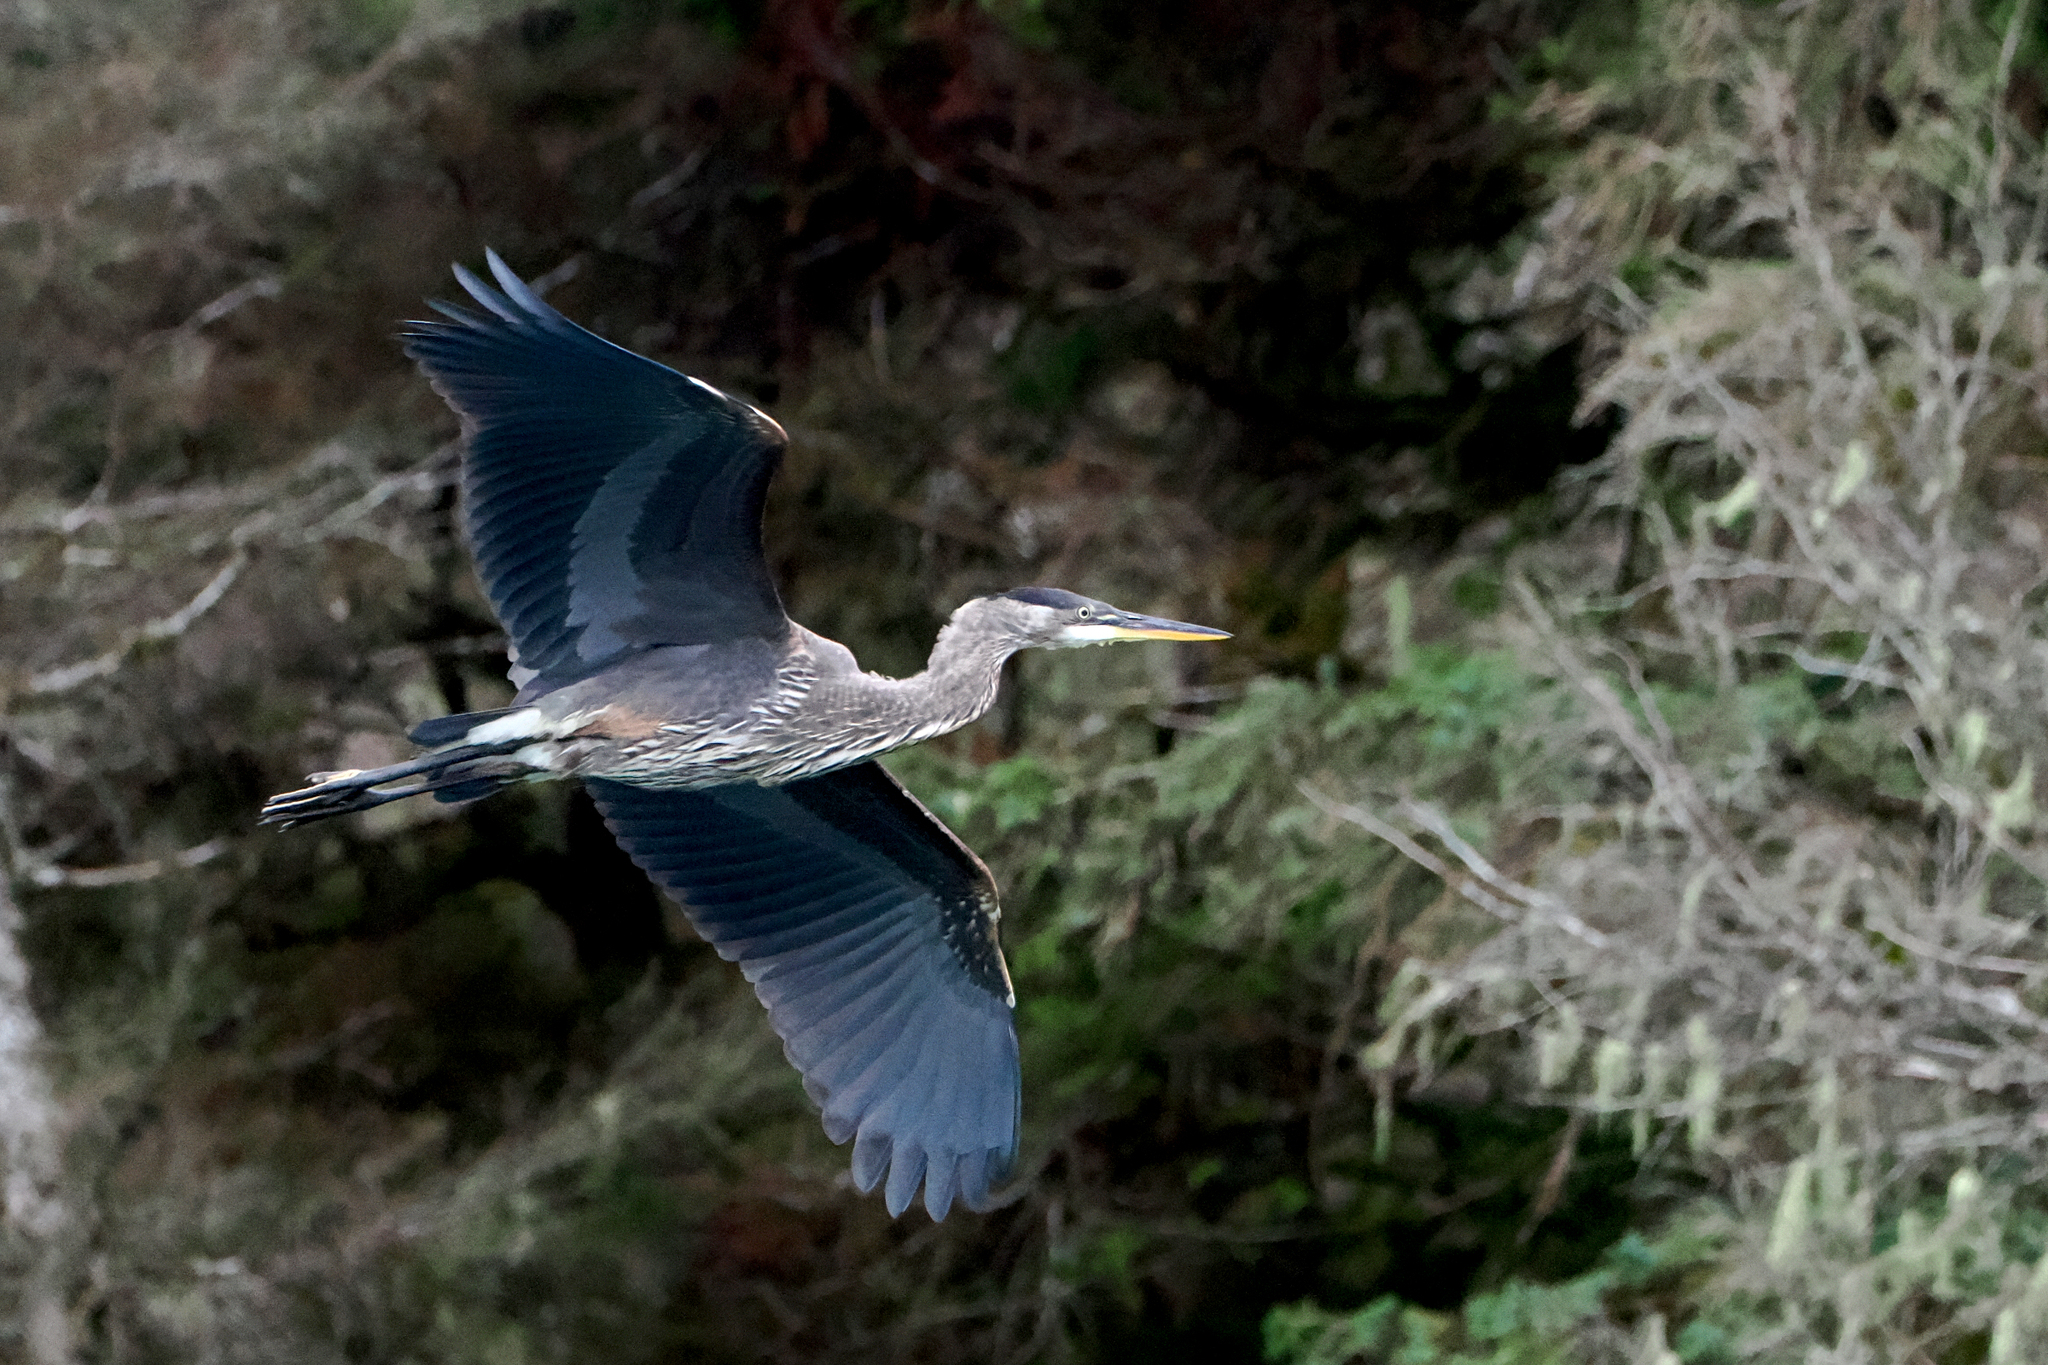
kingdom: Animalia
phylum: Chordata
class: Aves
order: Pelecaniformes
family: Ardeidae
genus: Ardea
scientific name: Ardea herodias
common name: Great blue heron
